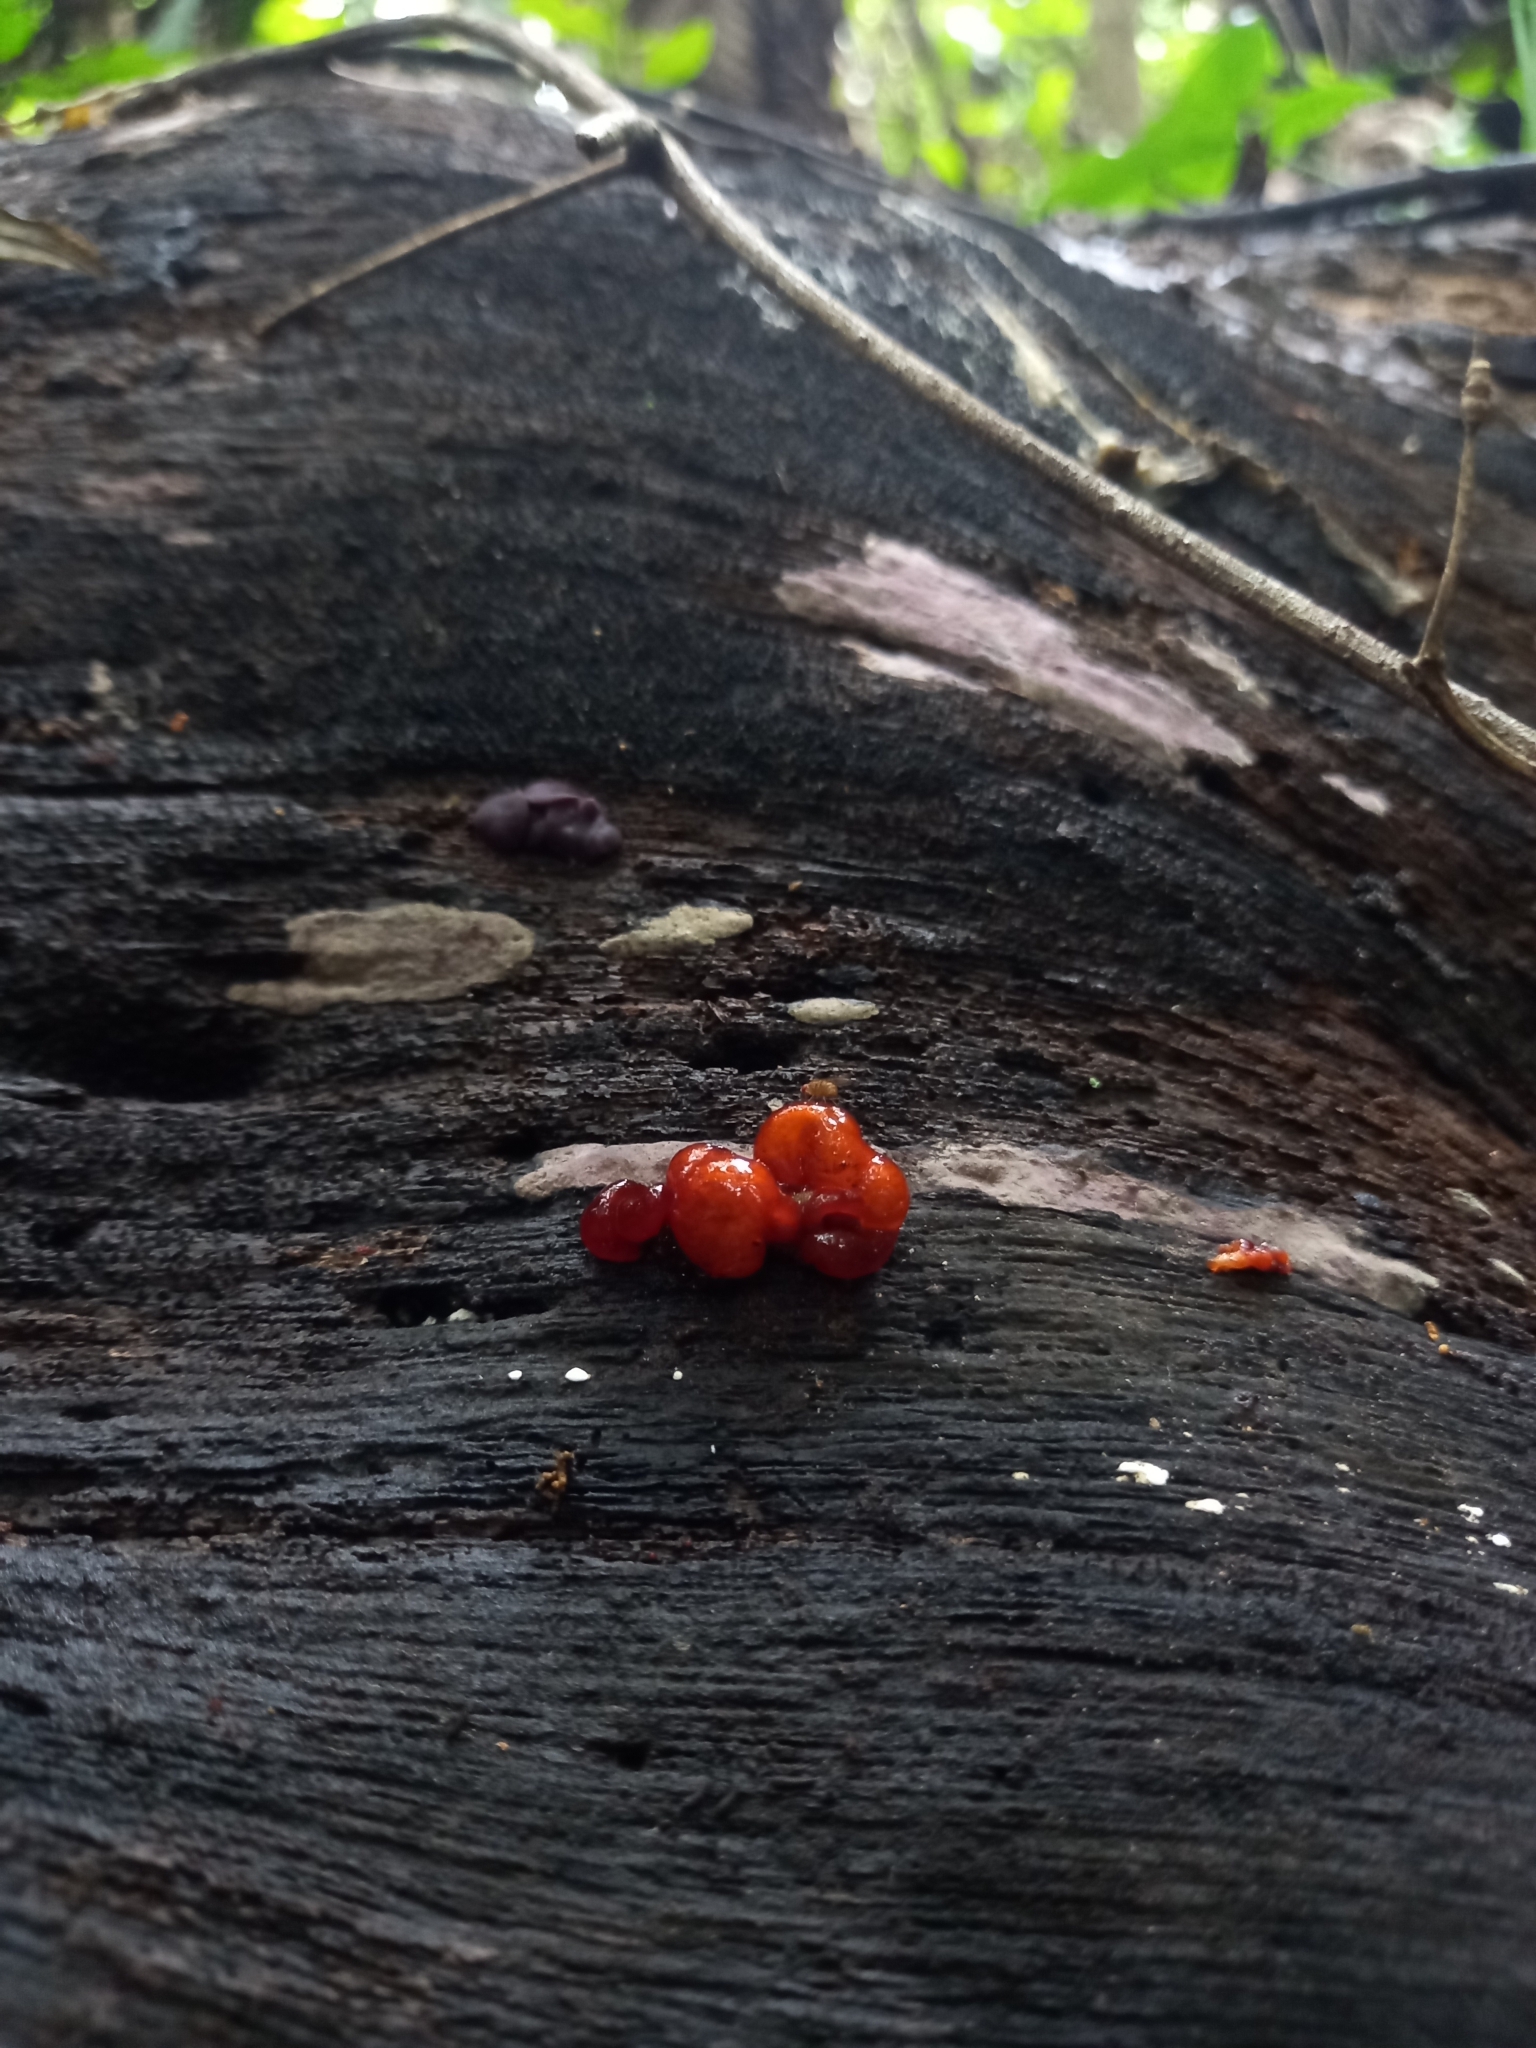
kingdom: Fungi
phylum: Basidiomycota
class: Tremellomycetes
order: Tremellales
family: Tremellaceae
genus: Phaeotremella
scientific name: Phaeotremella foliacea
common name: Leafy brain
